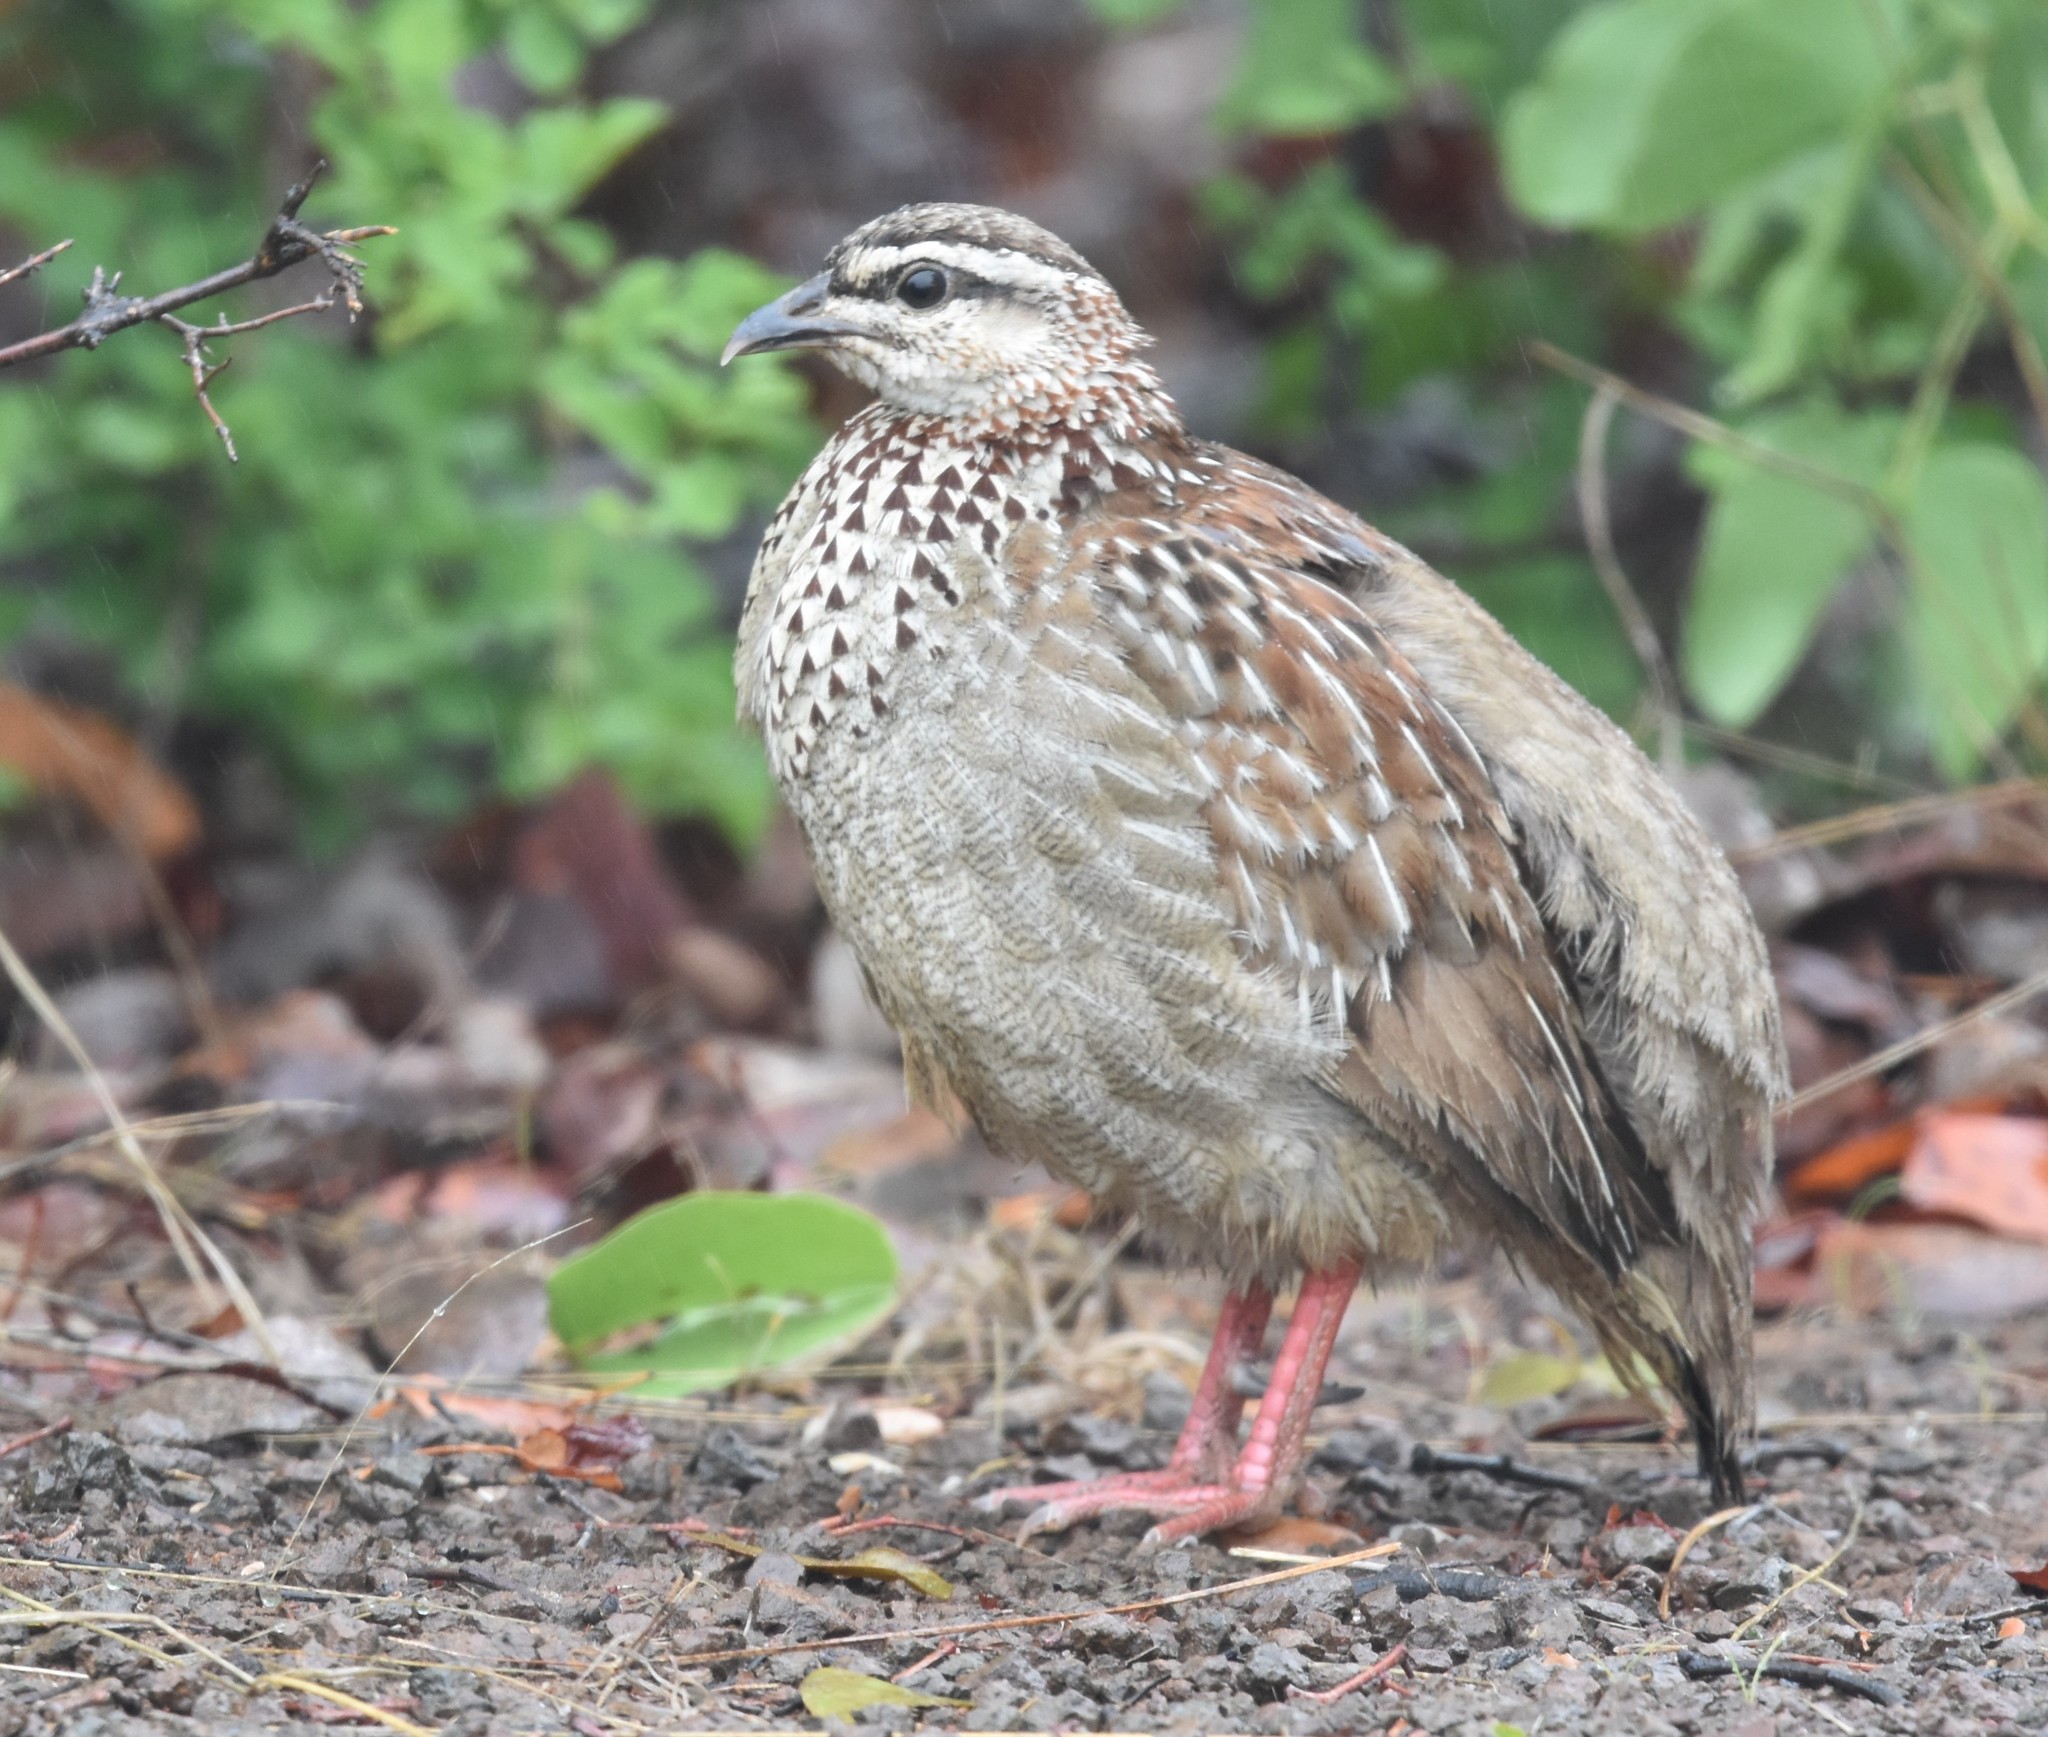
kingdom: Animalia
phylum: Chordata
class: Aves
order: Galliformes
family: Phasianidae
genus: Ortygornis
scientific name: Ortygornis sephaena
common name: Crested francolin
